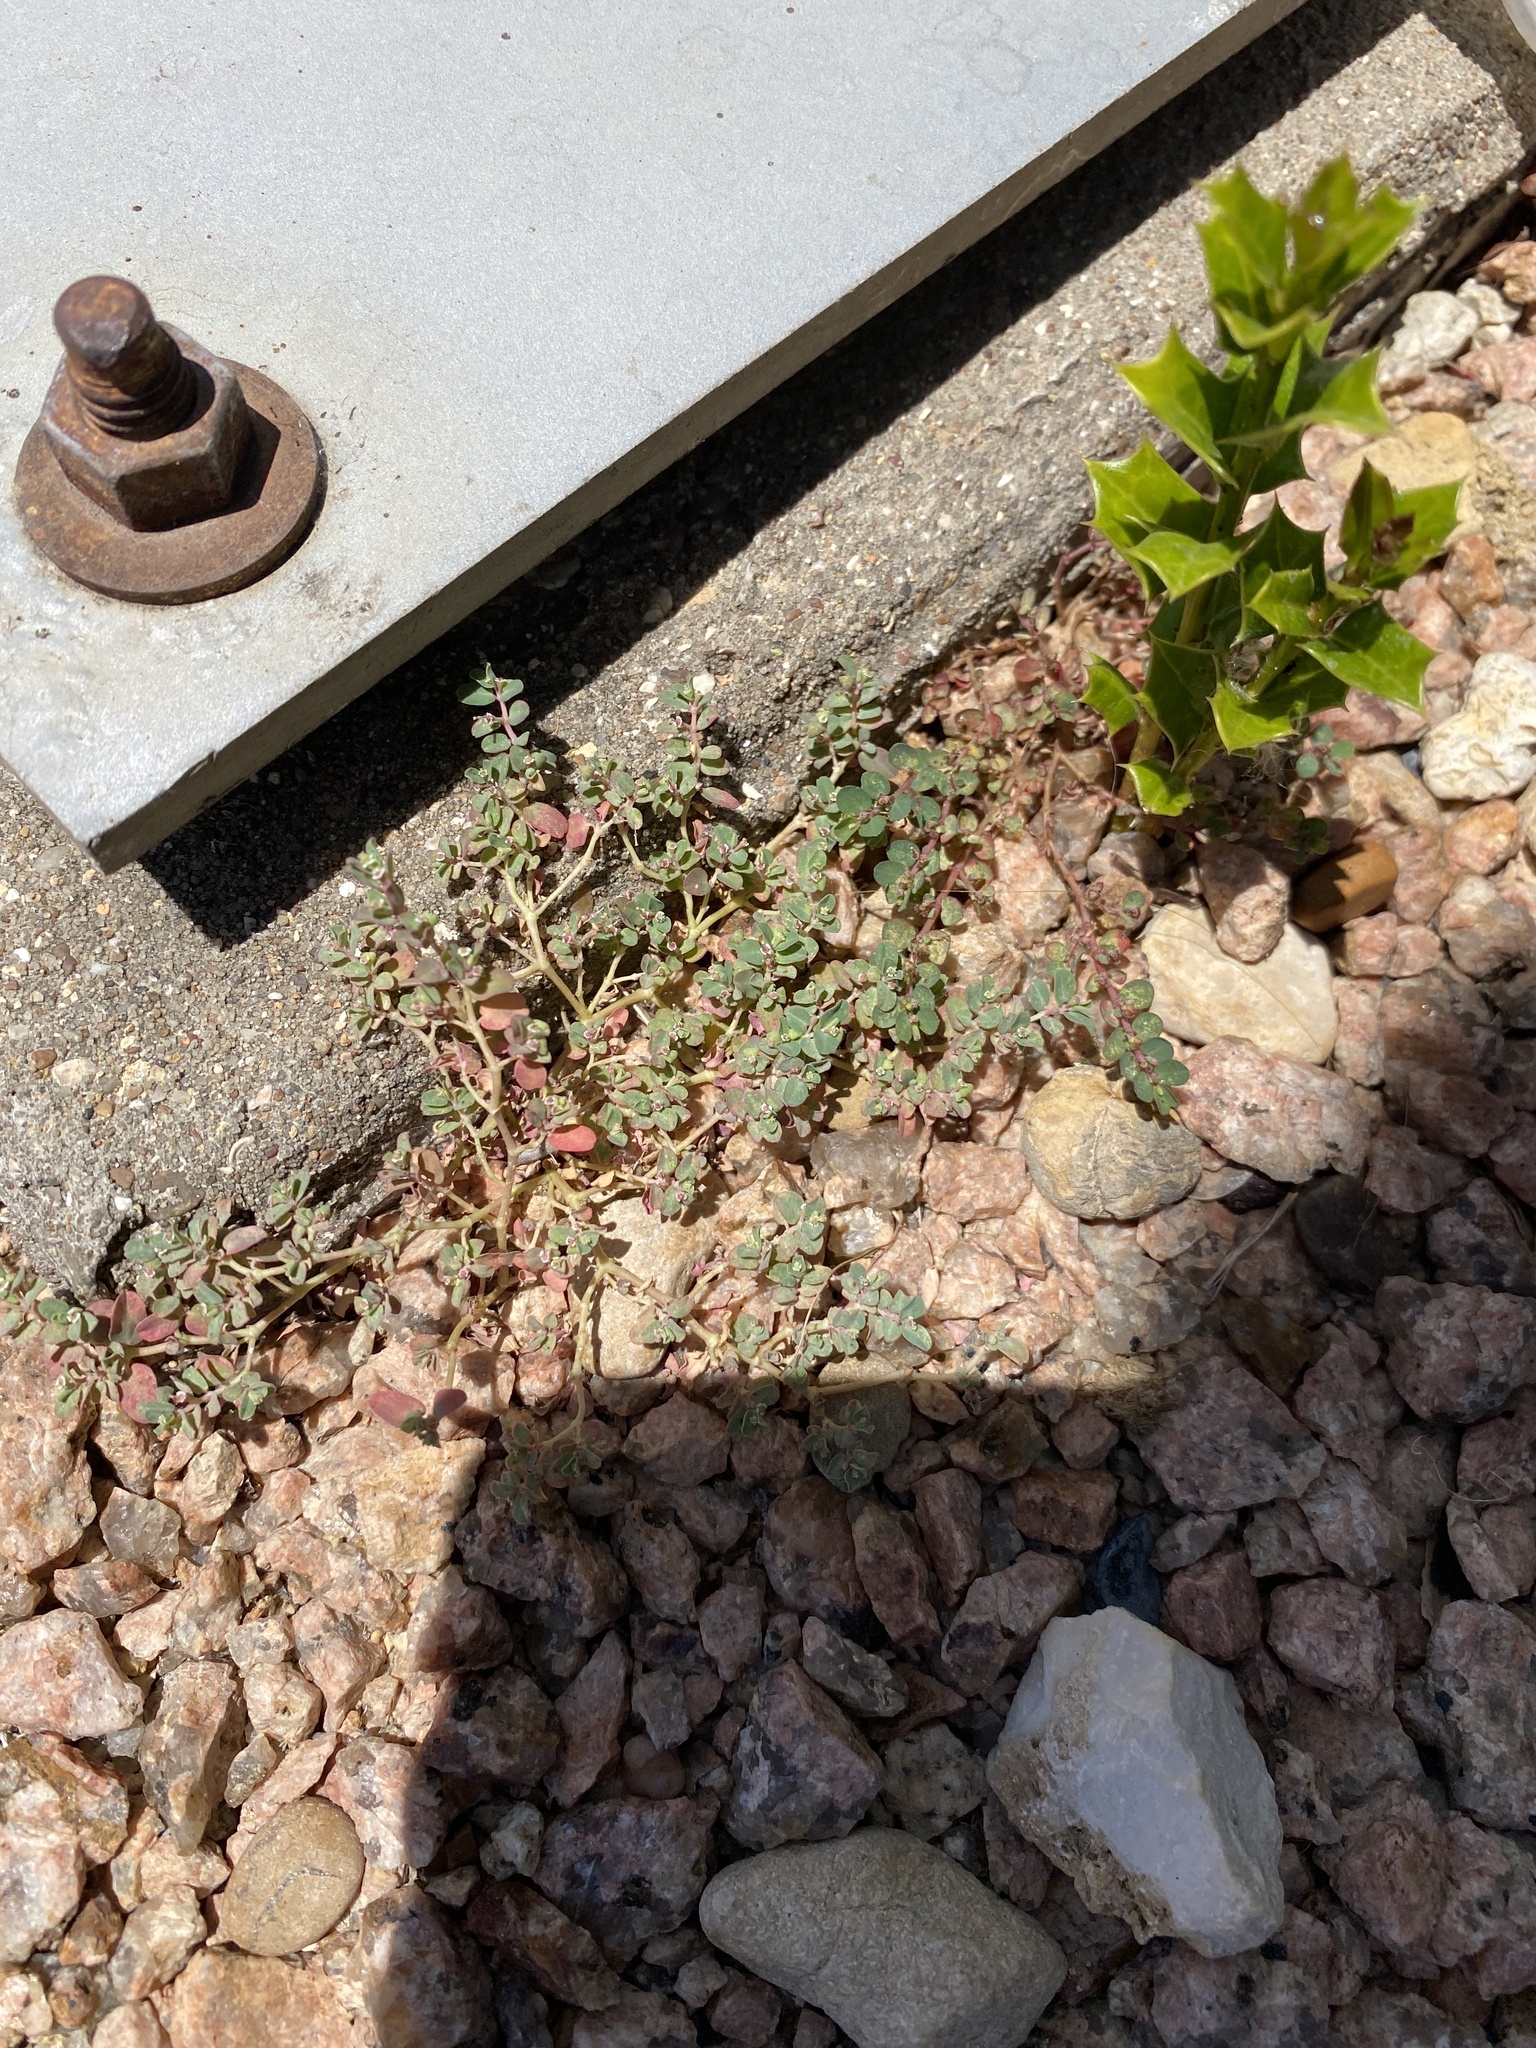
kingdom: Plantae
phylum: Tracheophyta
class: Magnoliopsida
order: Malpighiales
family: Euphorbiaceae
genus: Euphorbia
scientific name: Euphorbia serpens
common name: Matted sandmat
